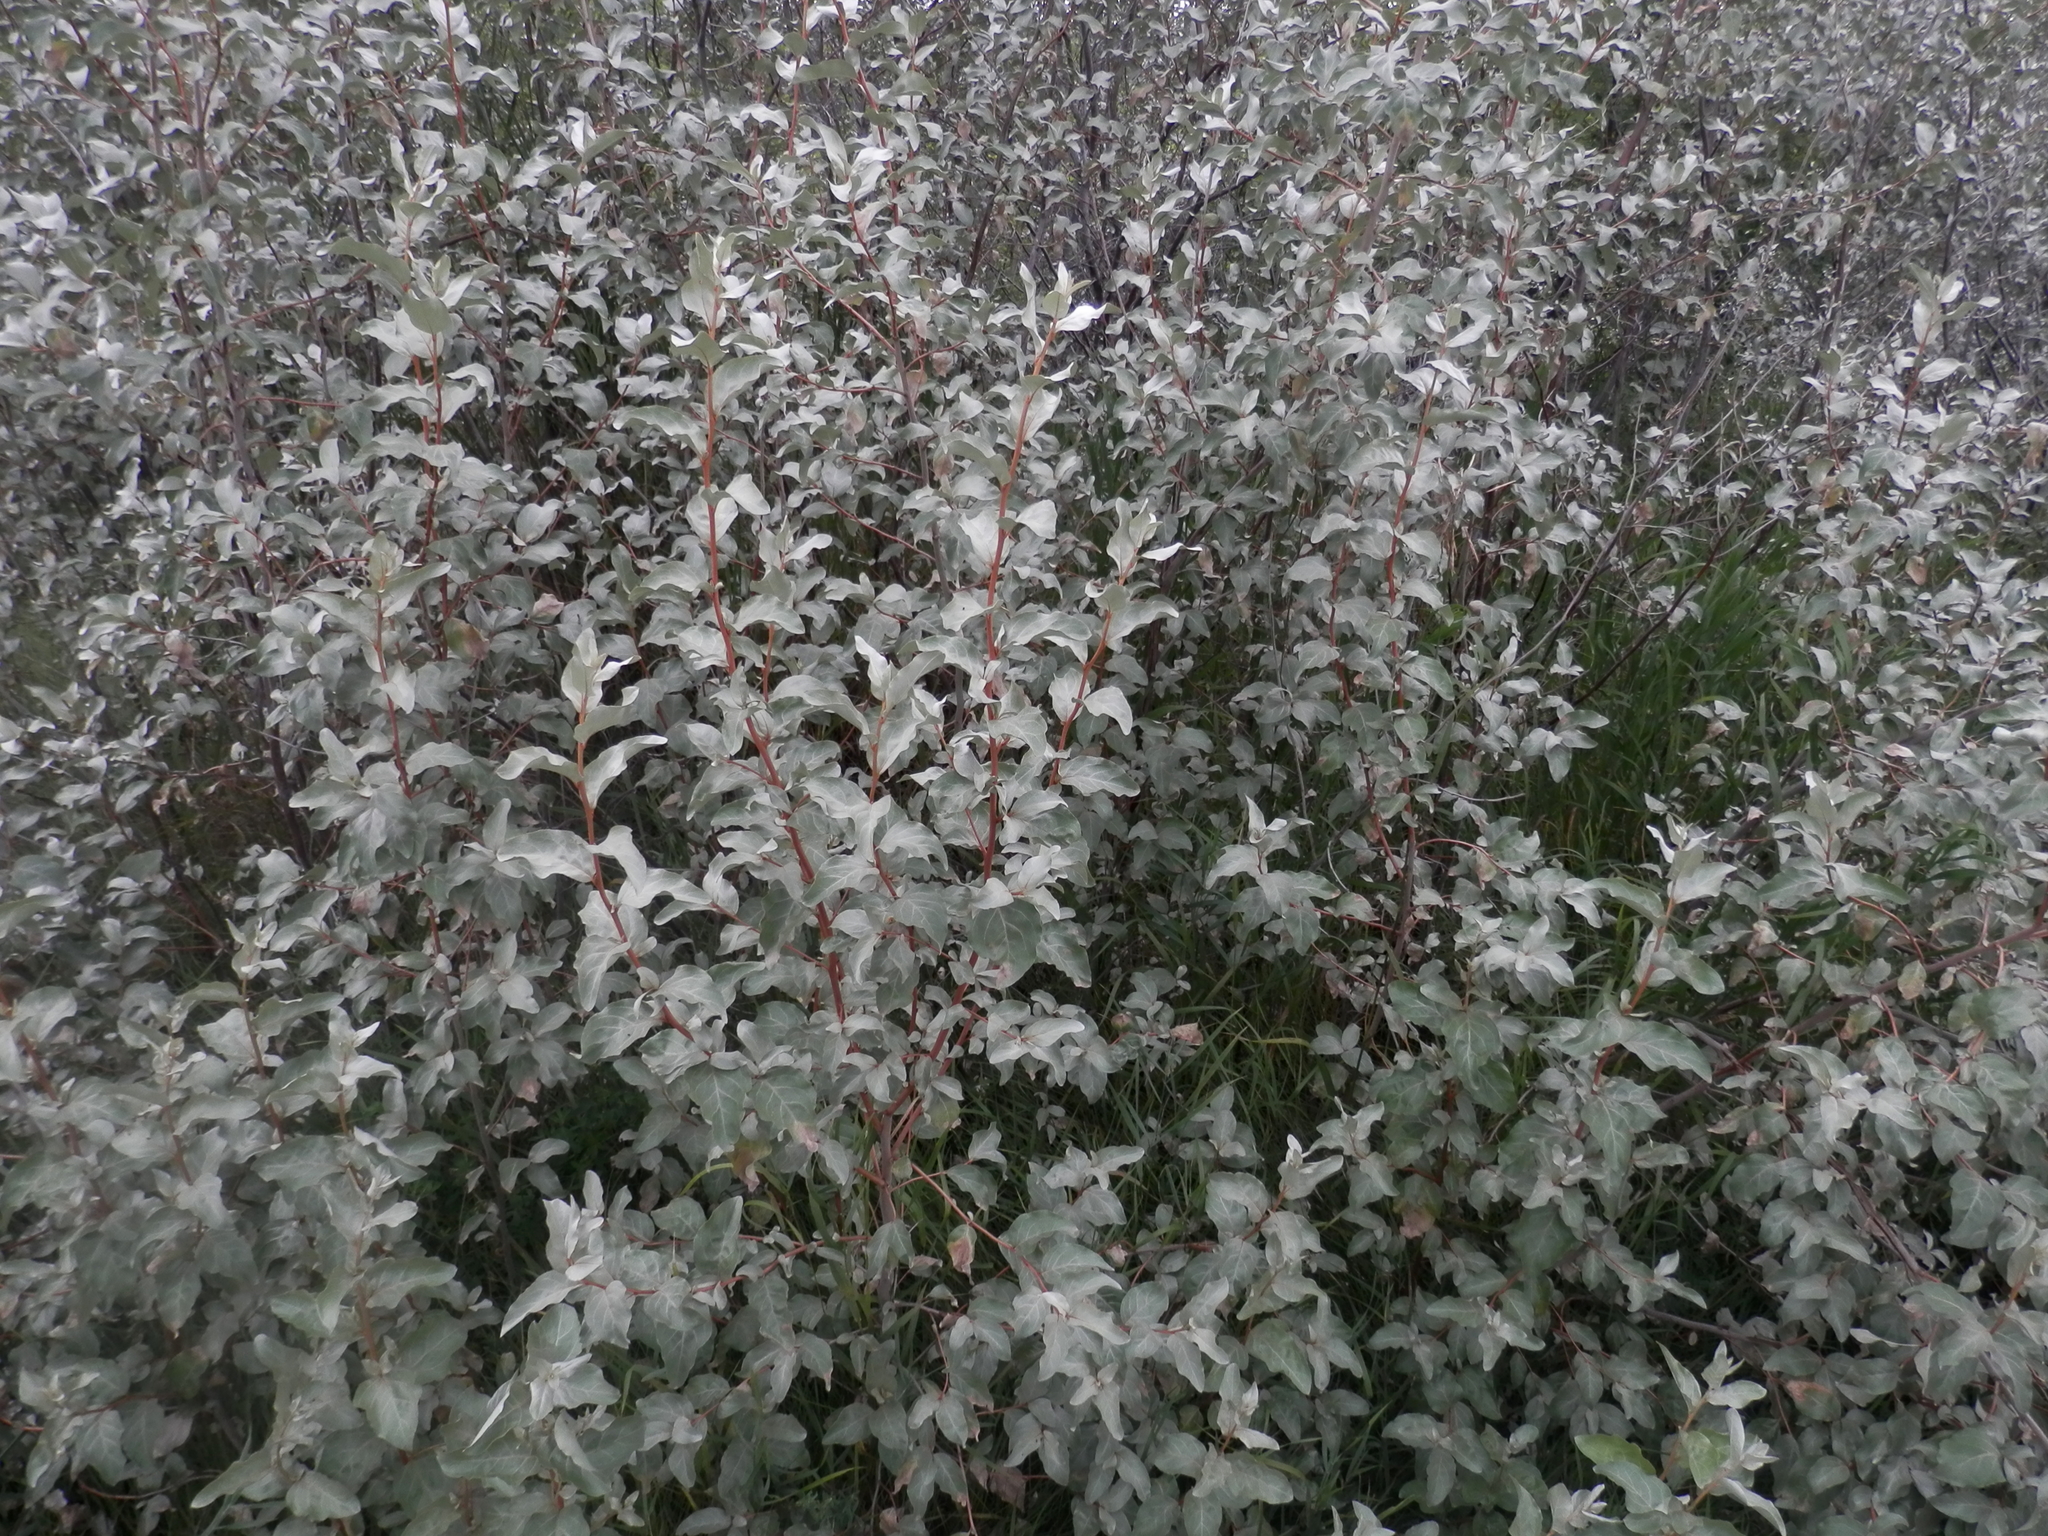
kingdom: Plantae
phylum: Tracheophyta
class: Magnoliopsida
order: Rosales
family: Elaeagnaceae
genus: Elaeagnus
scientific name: Elaeagnus commutata
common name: Silverberry
